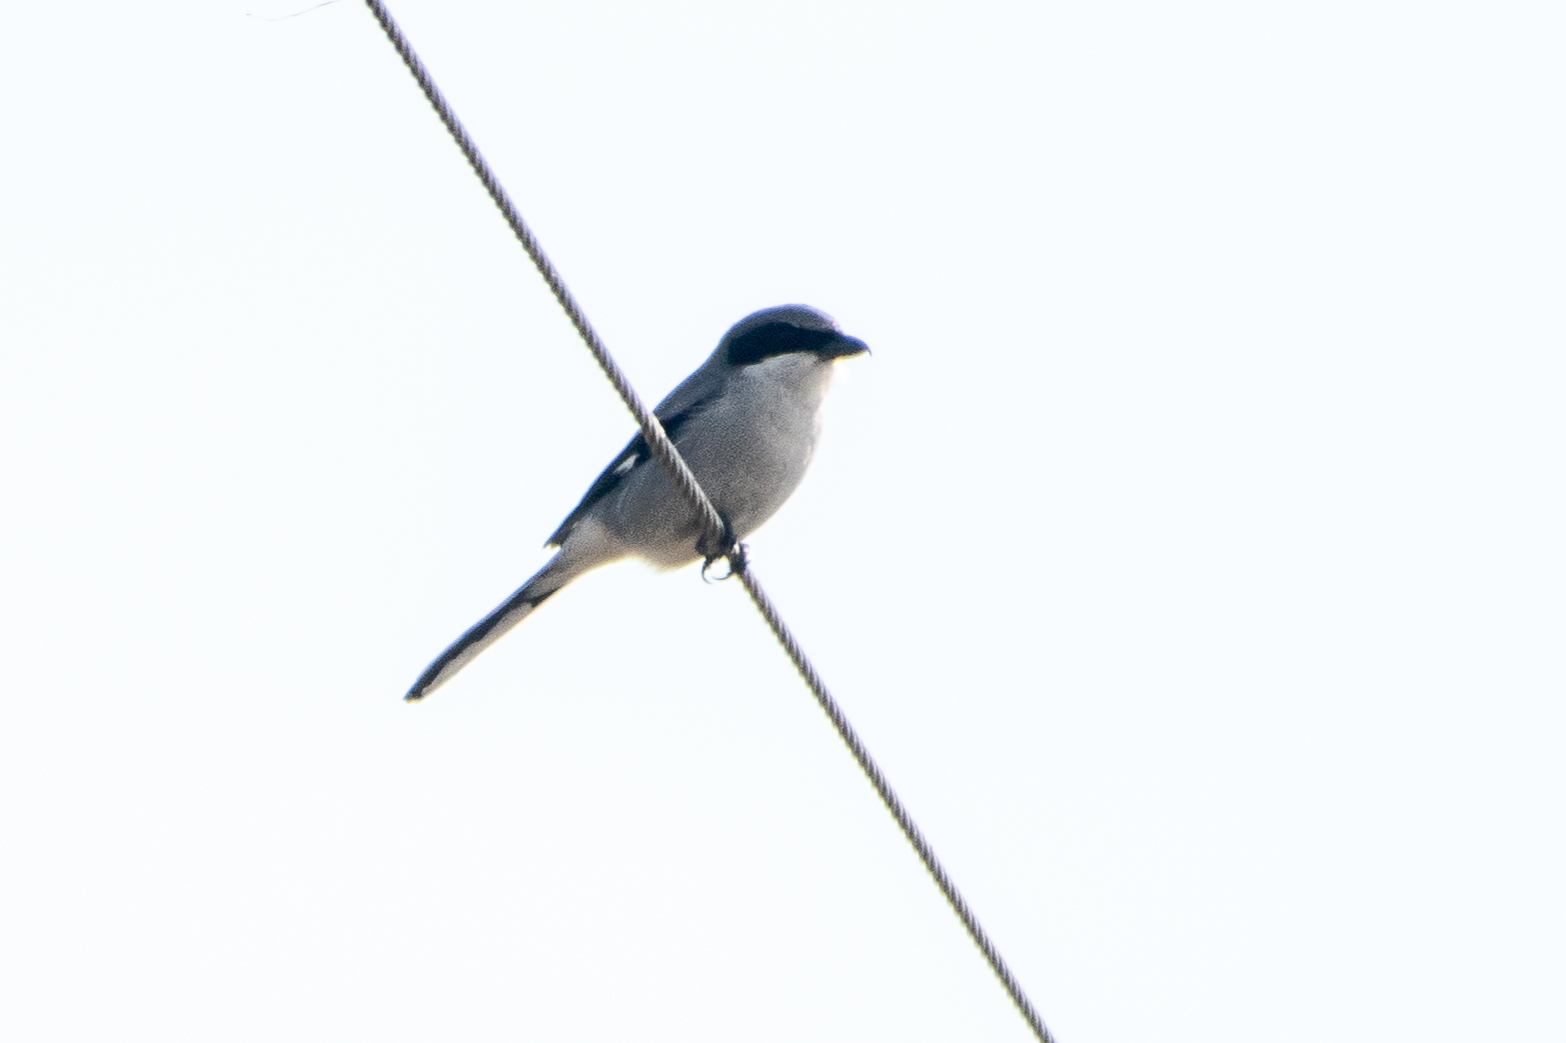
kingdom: Animalia
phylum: Chordata
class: Aves
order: Passeriformes
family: Laniidae
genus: Lanius
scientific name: Lanius ludovicianus
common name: Loggerhead shrike
